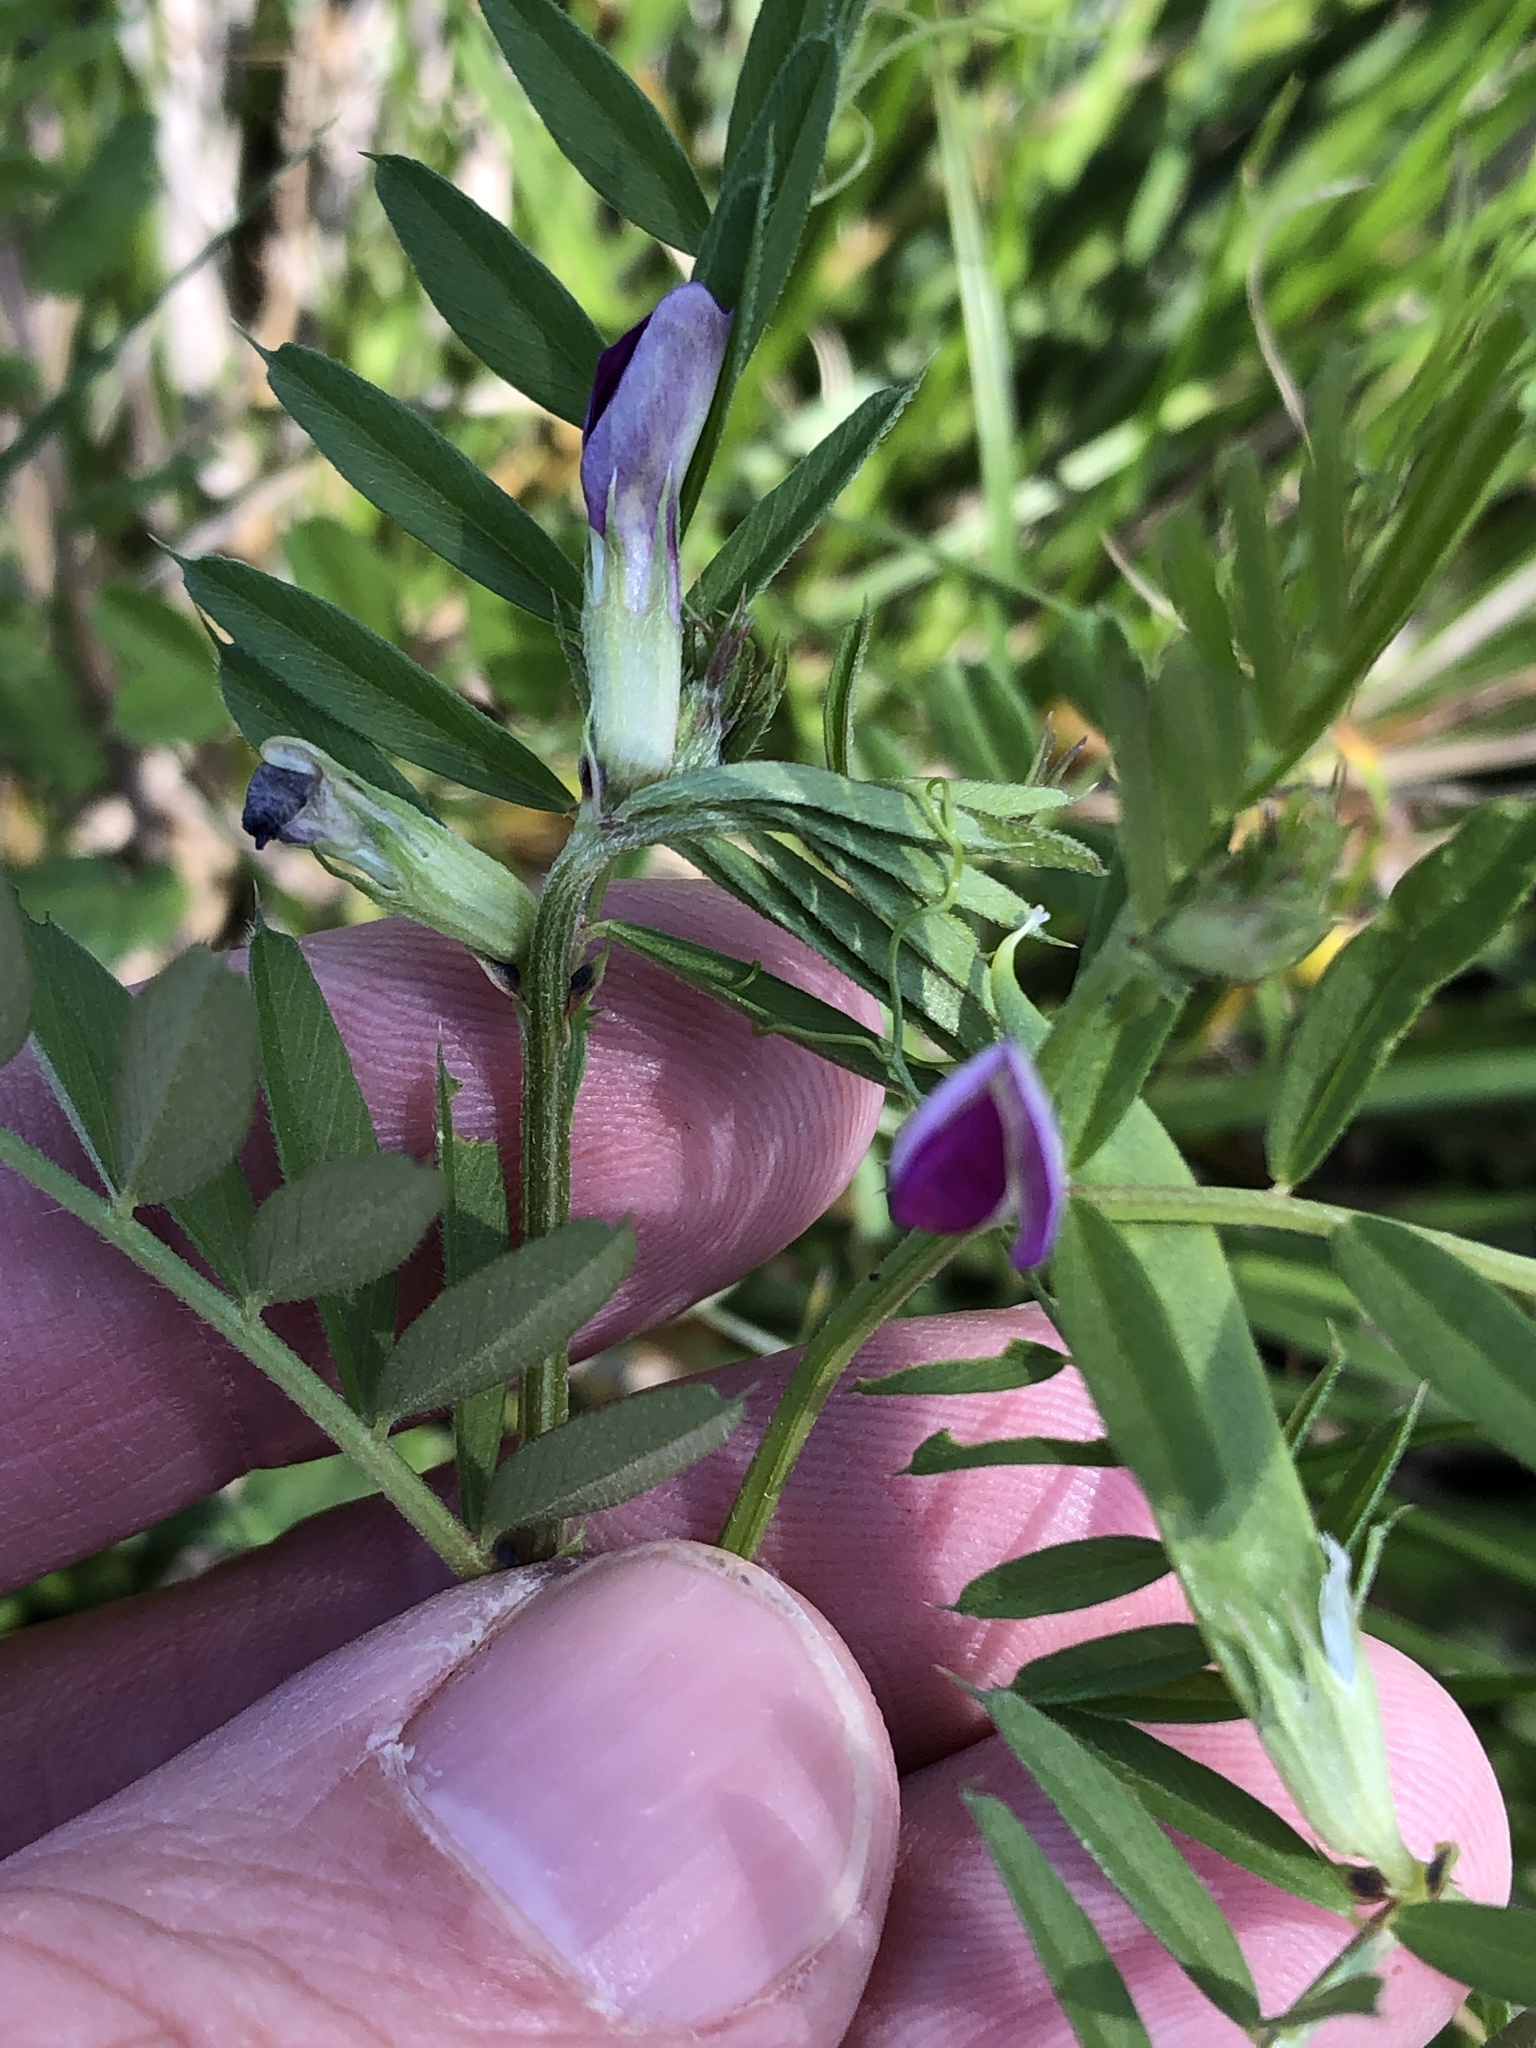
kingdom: Plantae
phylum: Tracheophyta
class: Magnoliopsida
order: Fabales
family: Fabaceae
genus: Vicia
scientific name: Vicia sativa
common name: Garden vetch
